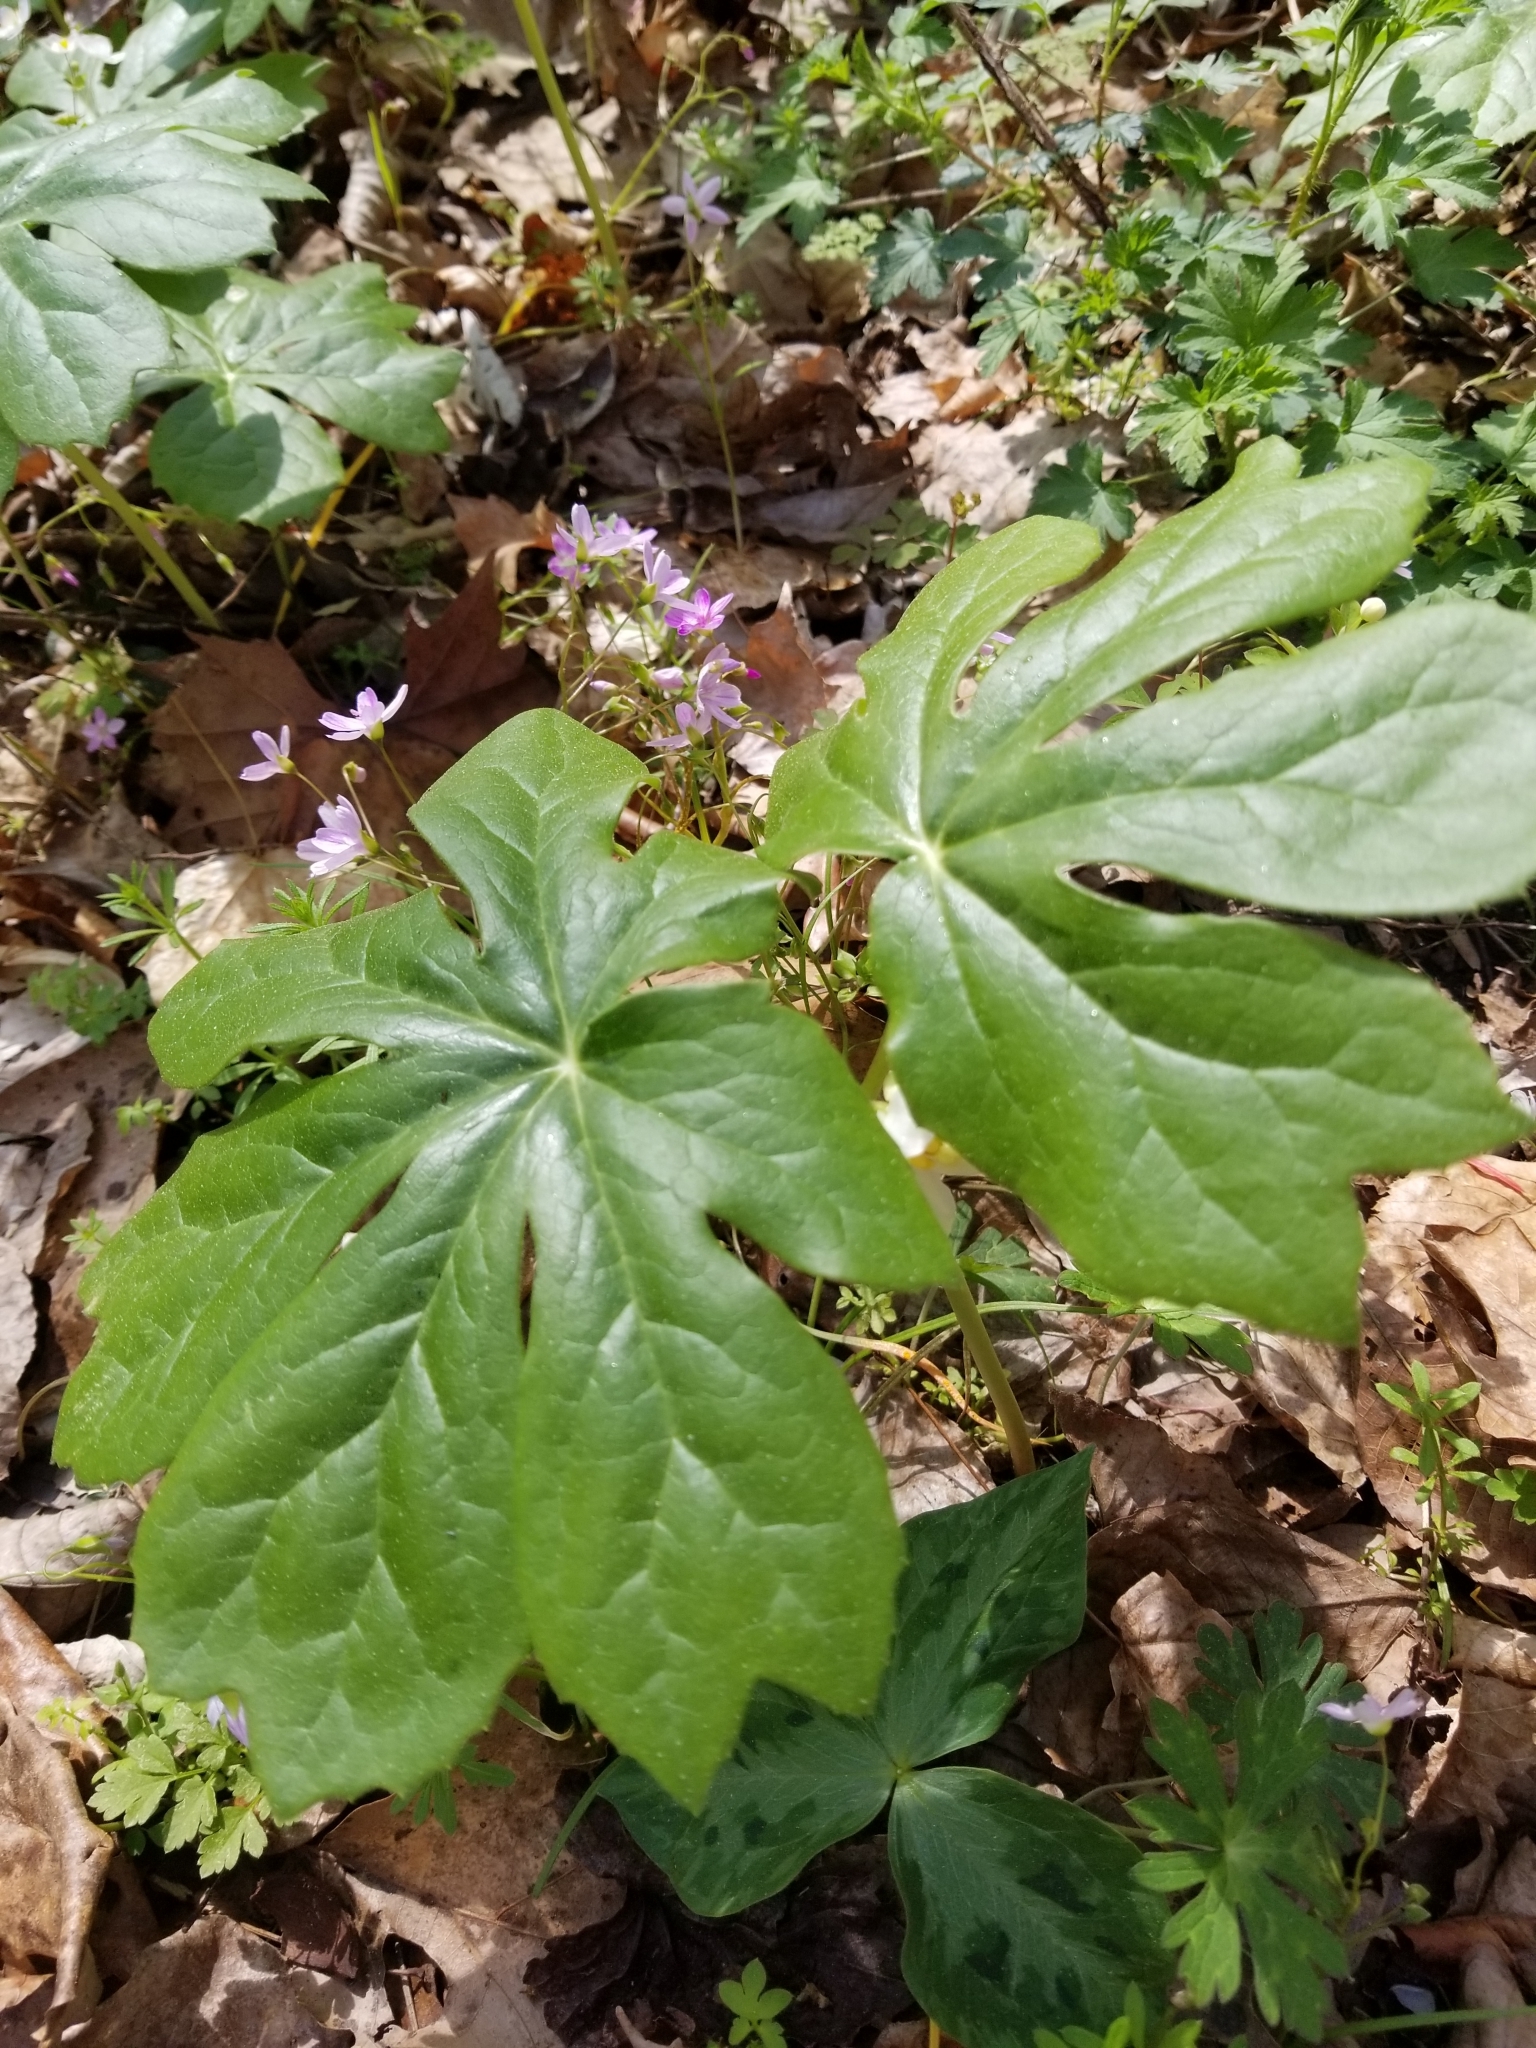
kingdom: Plantae
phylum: Tracheophyta
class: Magnoliopsida
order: Ranunculales
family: Berberidaceae
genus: Podophyllum
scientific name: Podophyllum peltatum
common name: Wild mandrake
